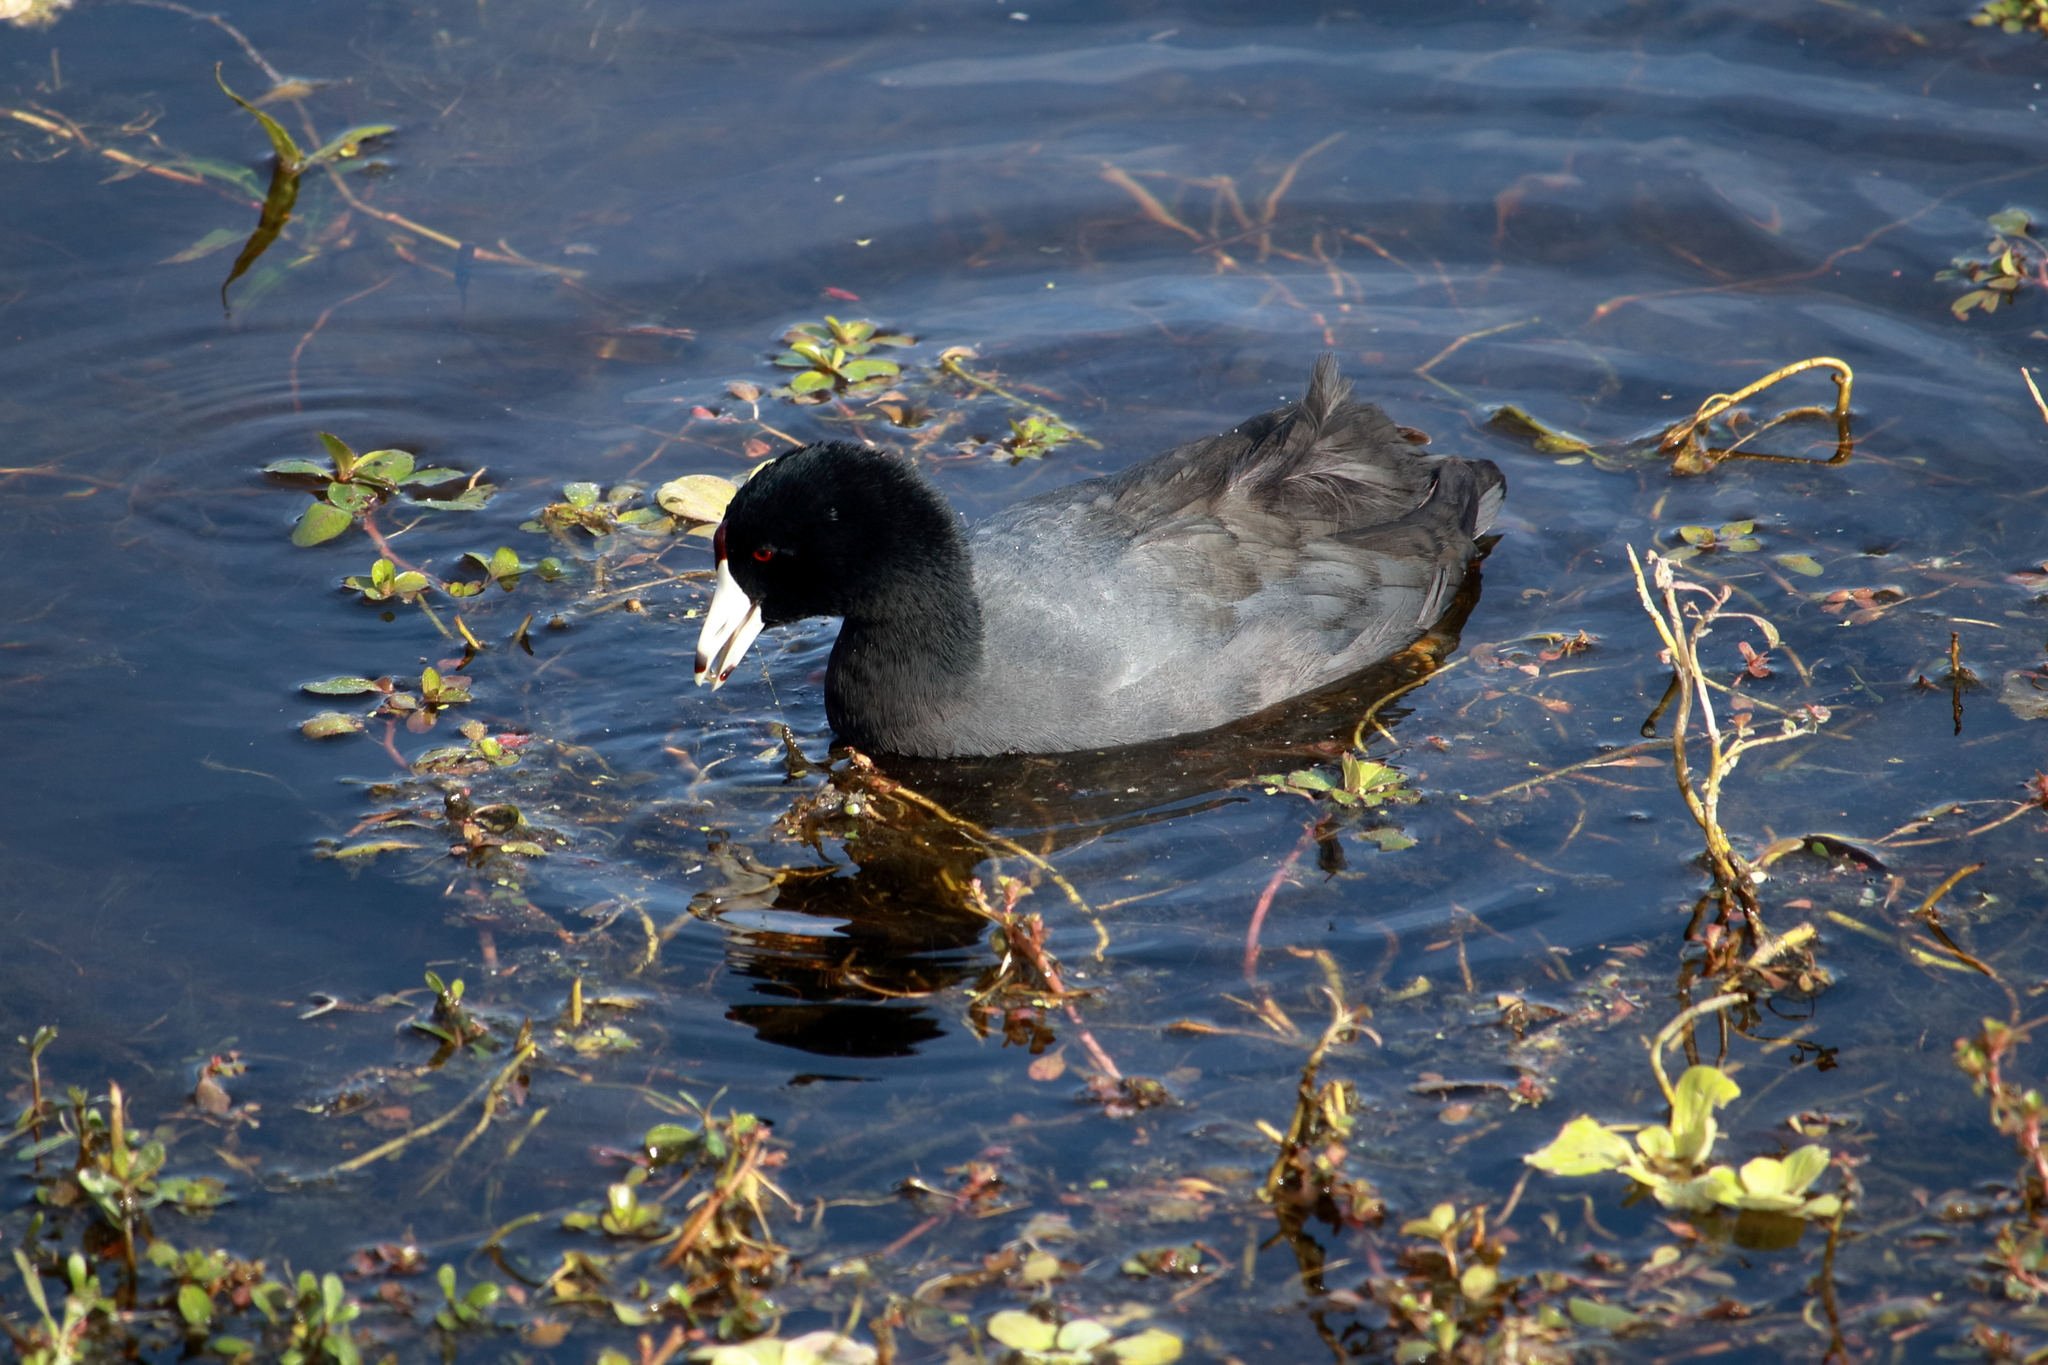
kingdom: Animalia
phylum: Chordata
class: Aves
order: Gruiformes
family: Rallidae
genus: Fulica
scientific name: Fulica americana
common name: American coot
